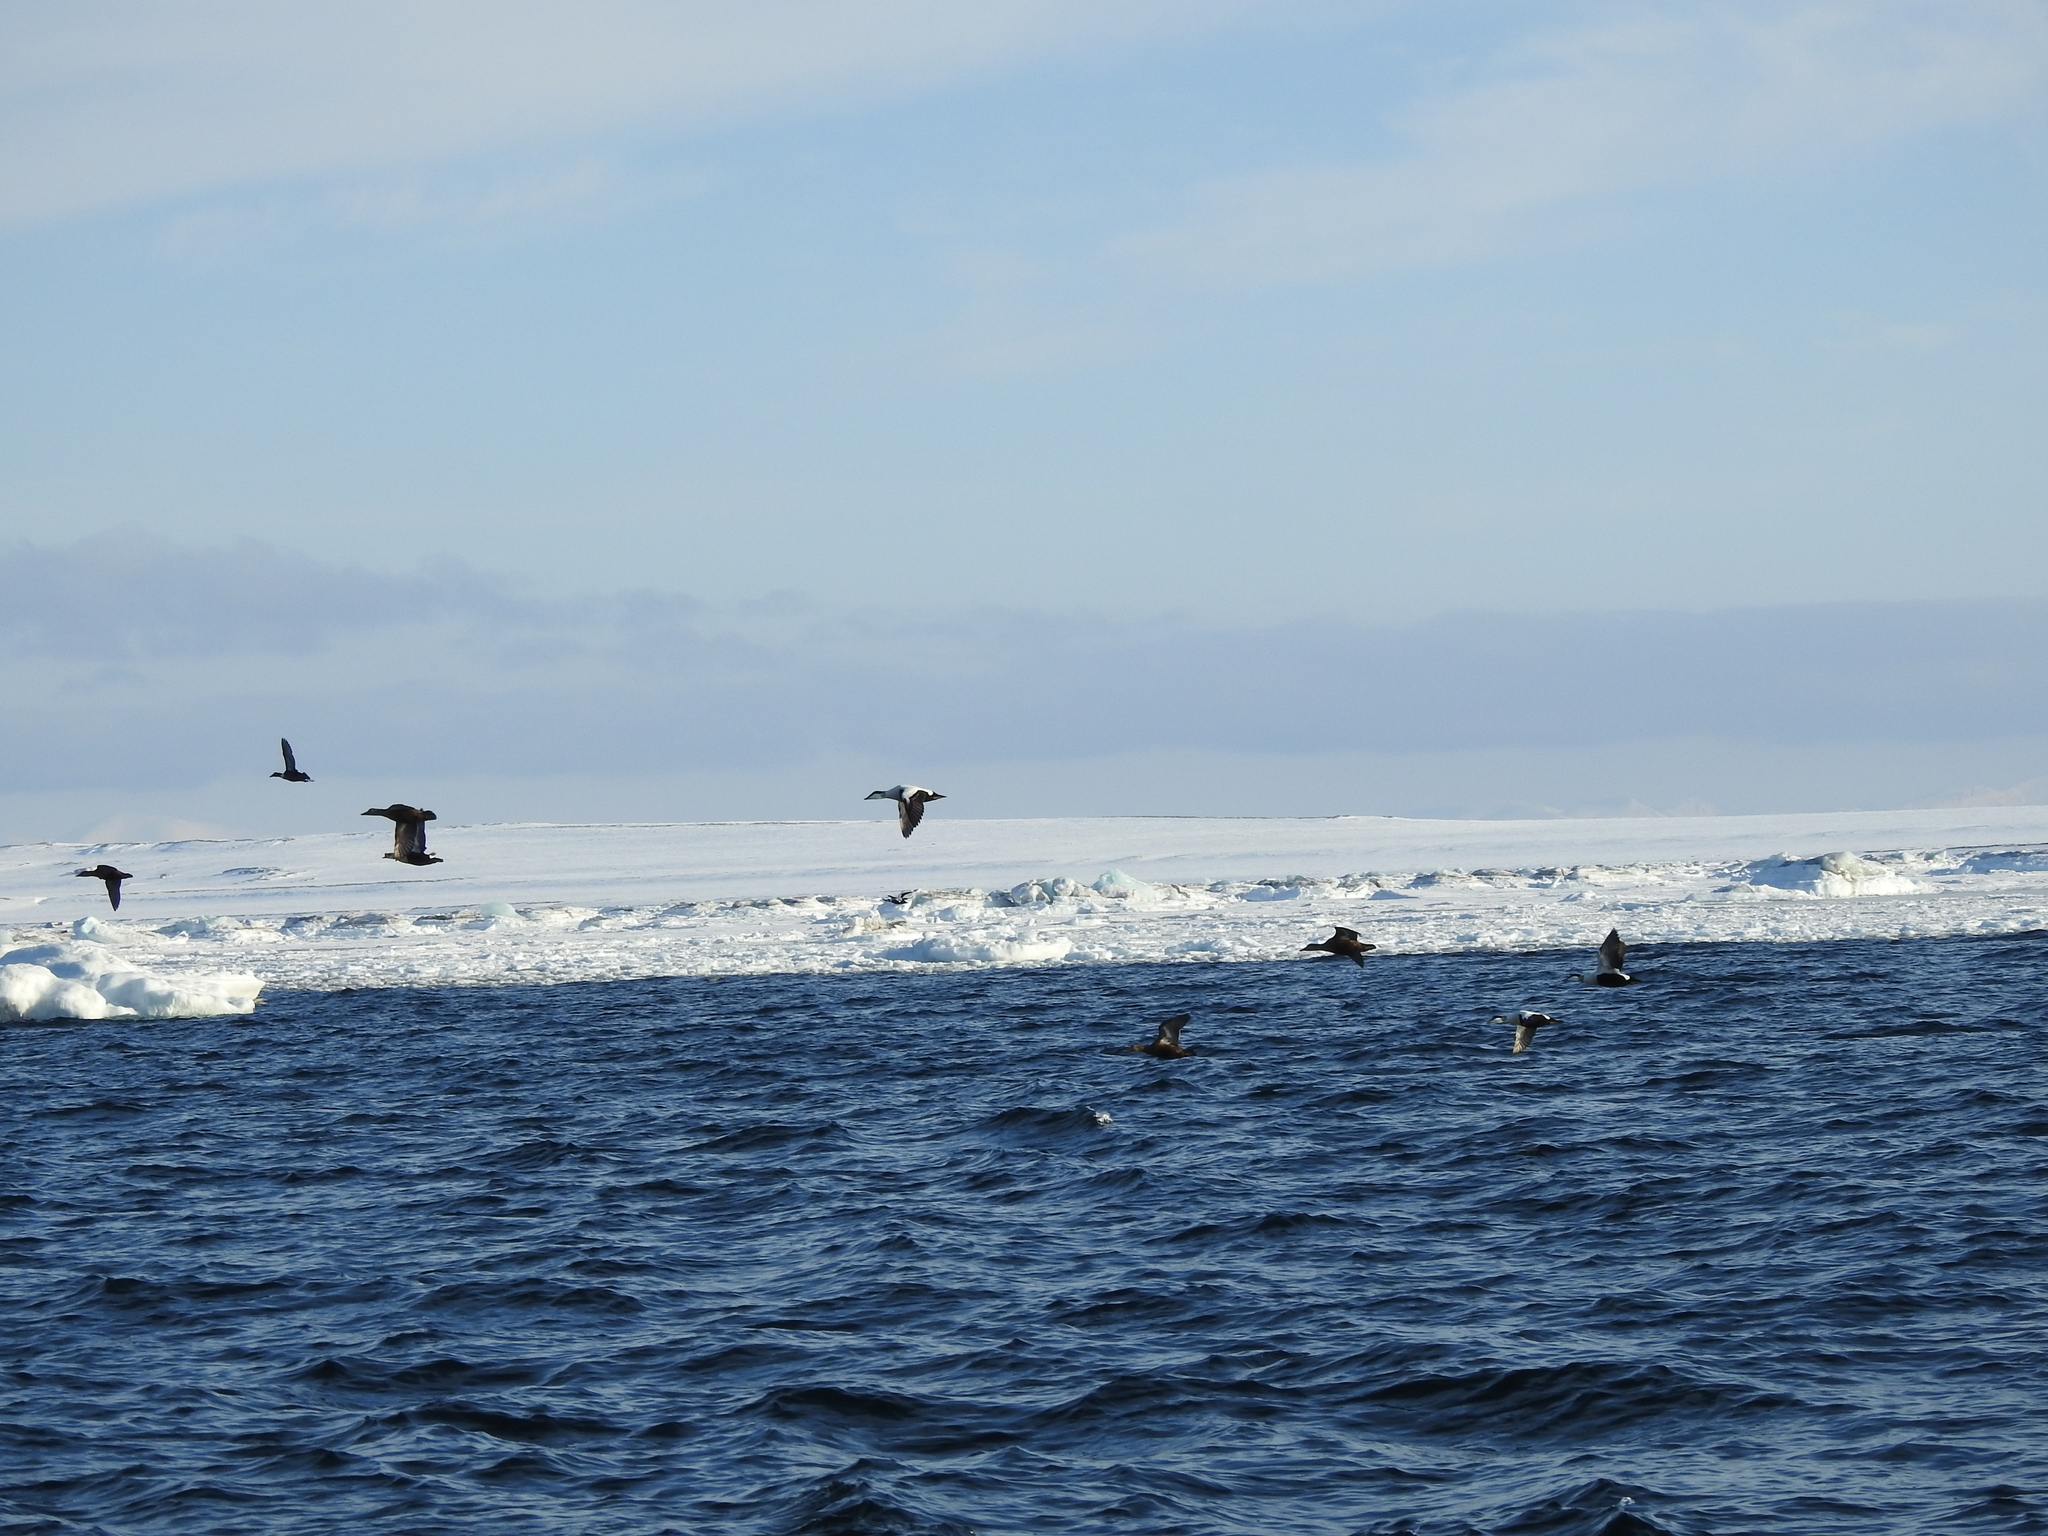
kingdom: Animalia
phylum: Chordata
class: Aves
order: Anseriformes
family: Anatidae
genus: Somateria
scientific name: Somateria mollissima
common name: Common eider
